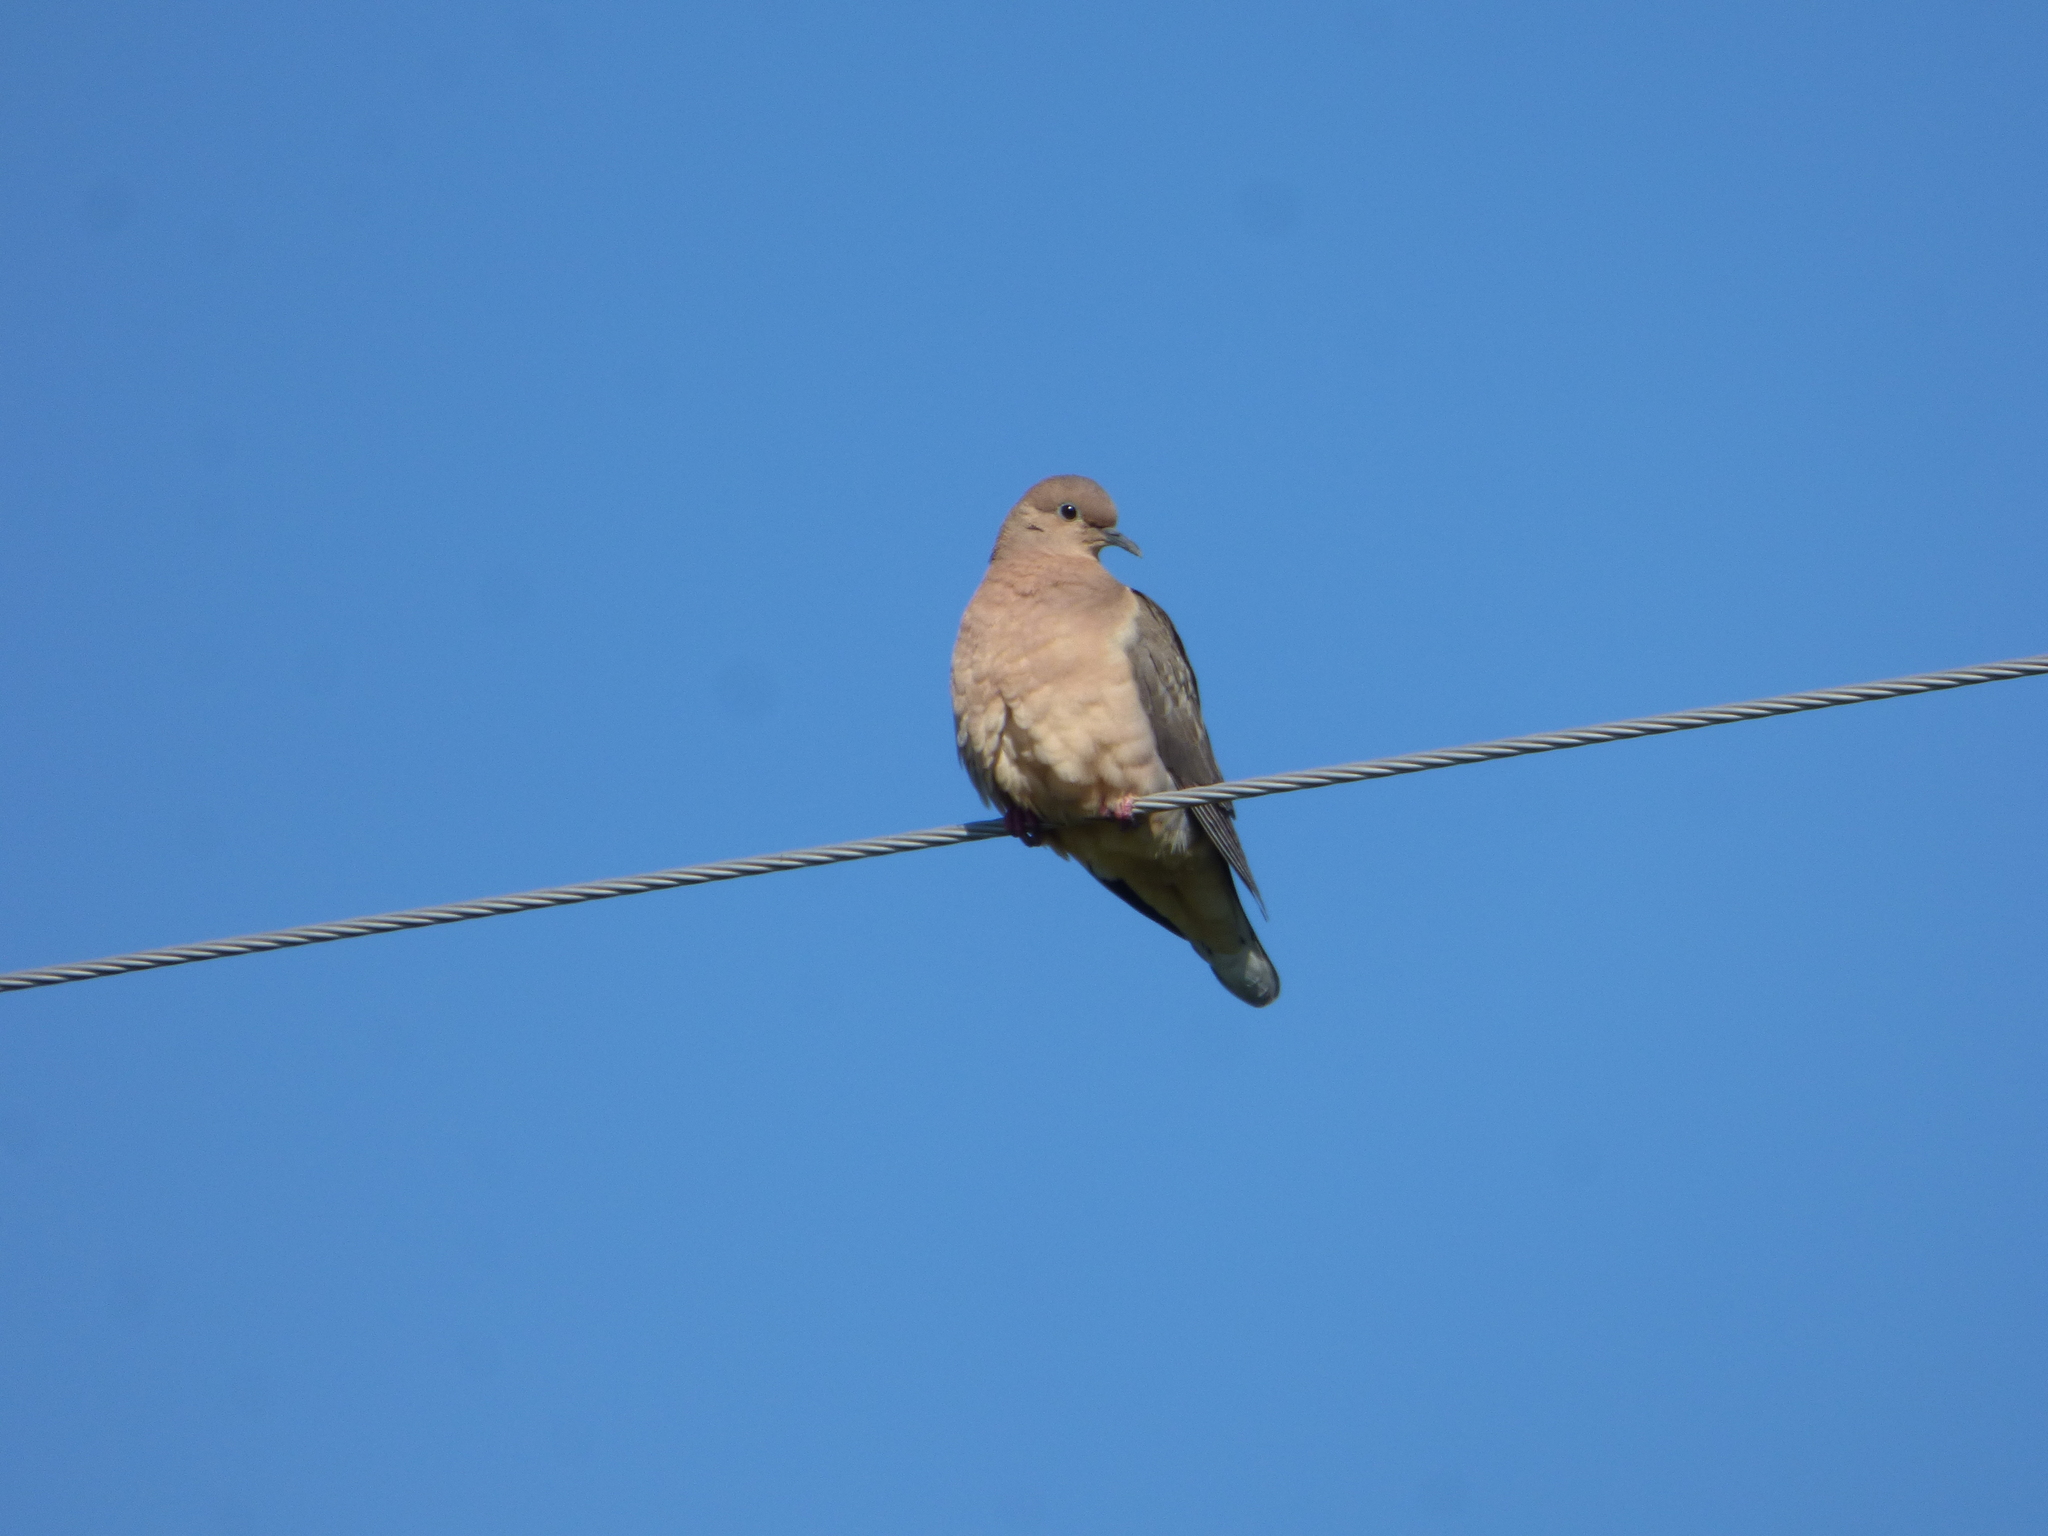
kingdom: Animalia
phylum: Chordata
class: Aves
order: Columbiformes
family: Columbidae
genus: Zenaida
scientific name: Zenaida auriculata
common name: Eared dove
